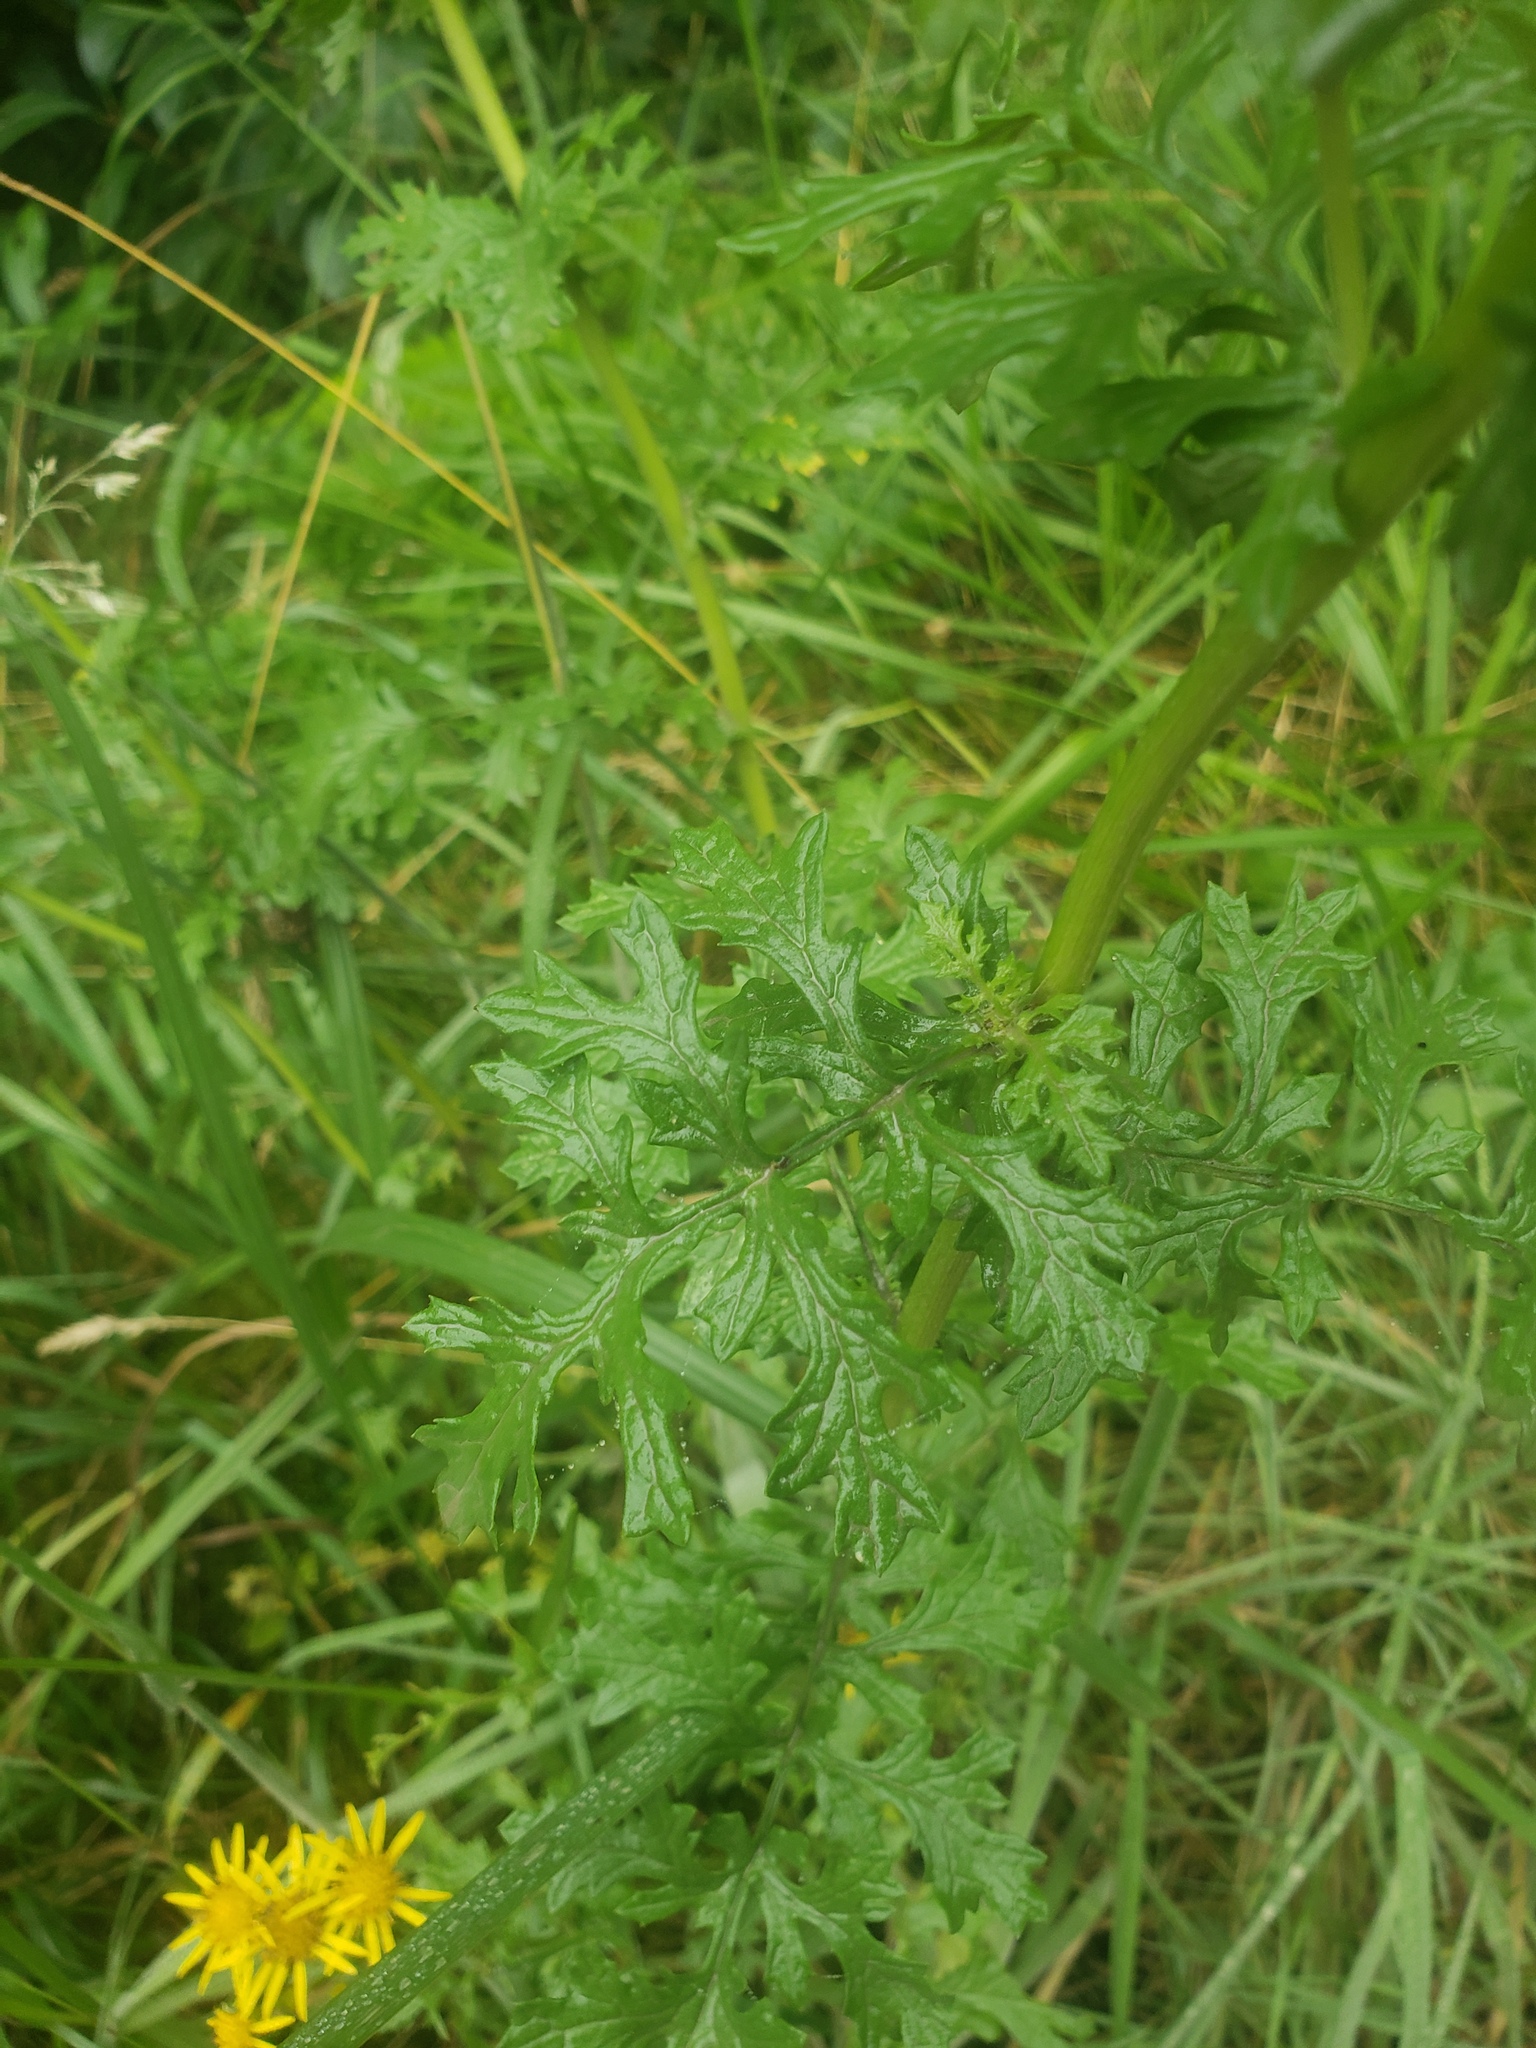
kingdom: Plantae
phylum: Tracheophyta
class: Magnoliopsida
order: Asterales
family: Asteraceae
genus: Jacobaea
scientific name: Jacobaea vulgaris
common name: Stinking willie
